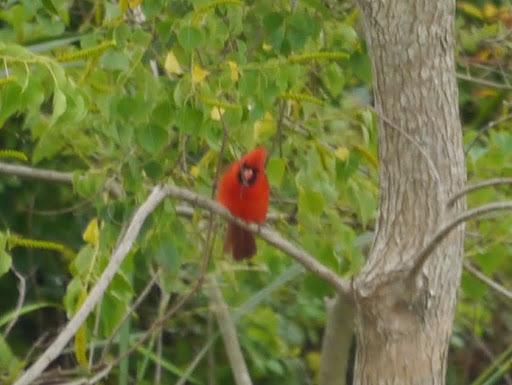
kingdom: Animalia
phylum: Chordata
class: Aves
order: Passeriformes
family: Cardinalidae
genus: Cardinalis
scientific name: Cardinalis cardinalis
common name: Northern cardinal
